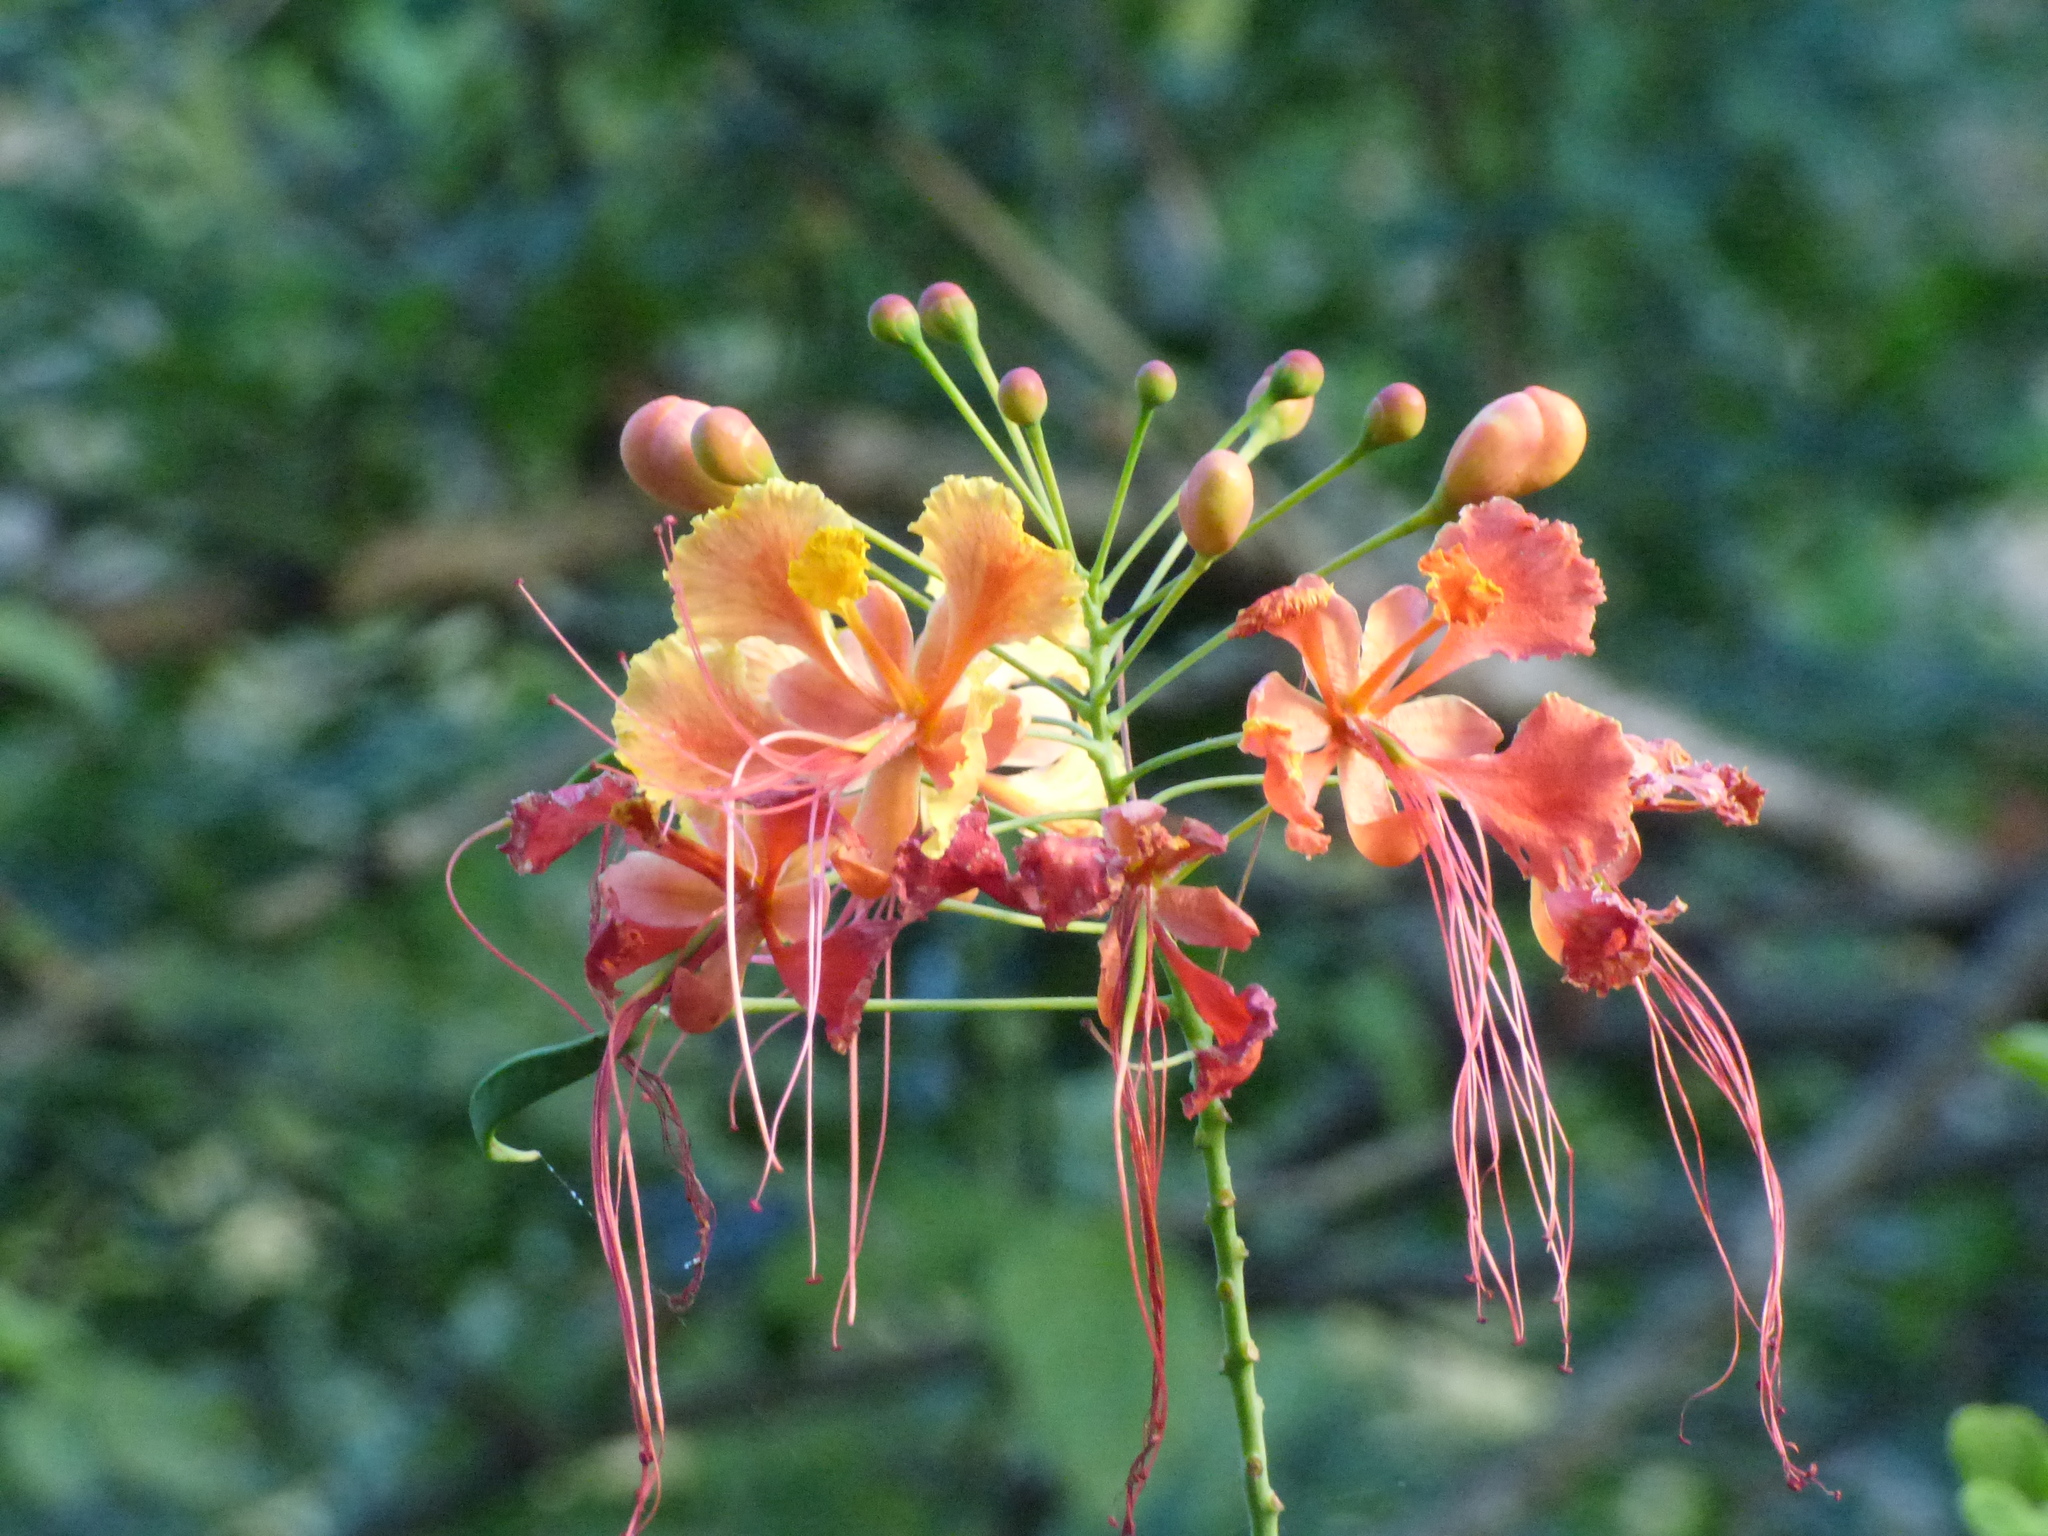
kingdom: Plantae
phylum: Tracheophyta
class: Magnoliopsida
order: Fabales
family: Fabaceae
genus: Caesalpinia
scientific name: Caesalpinia pulcherrima
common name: Pride-of-barbados
